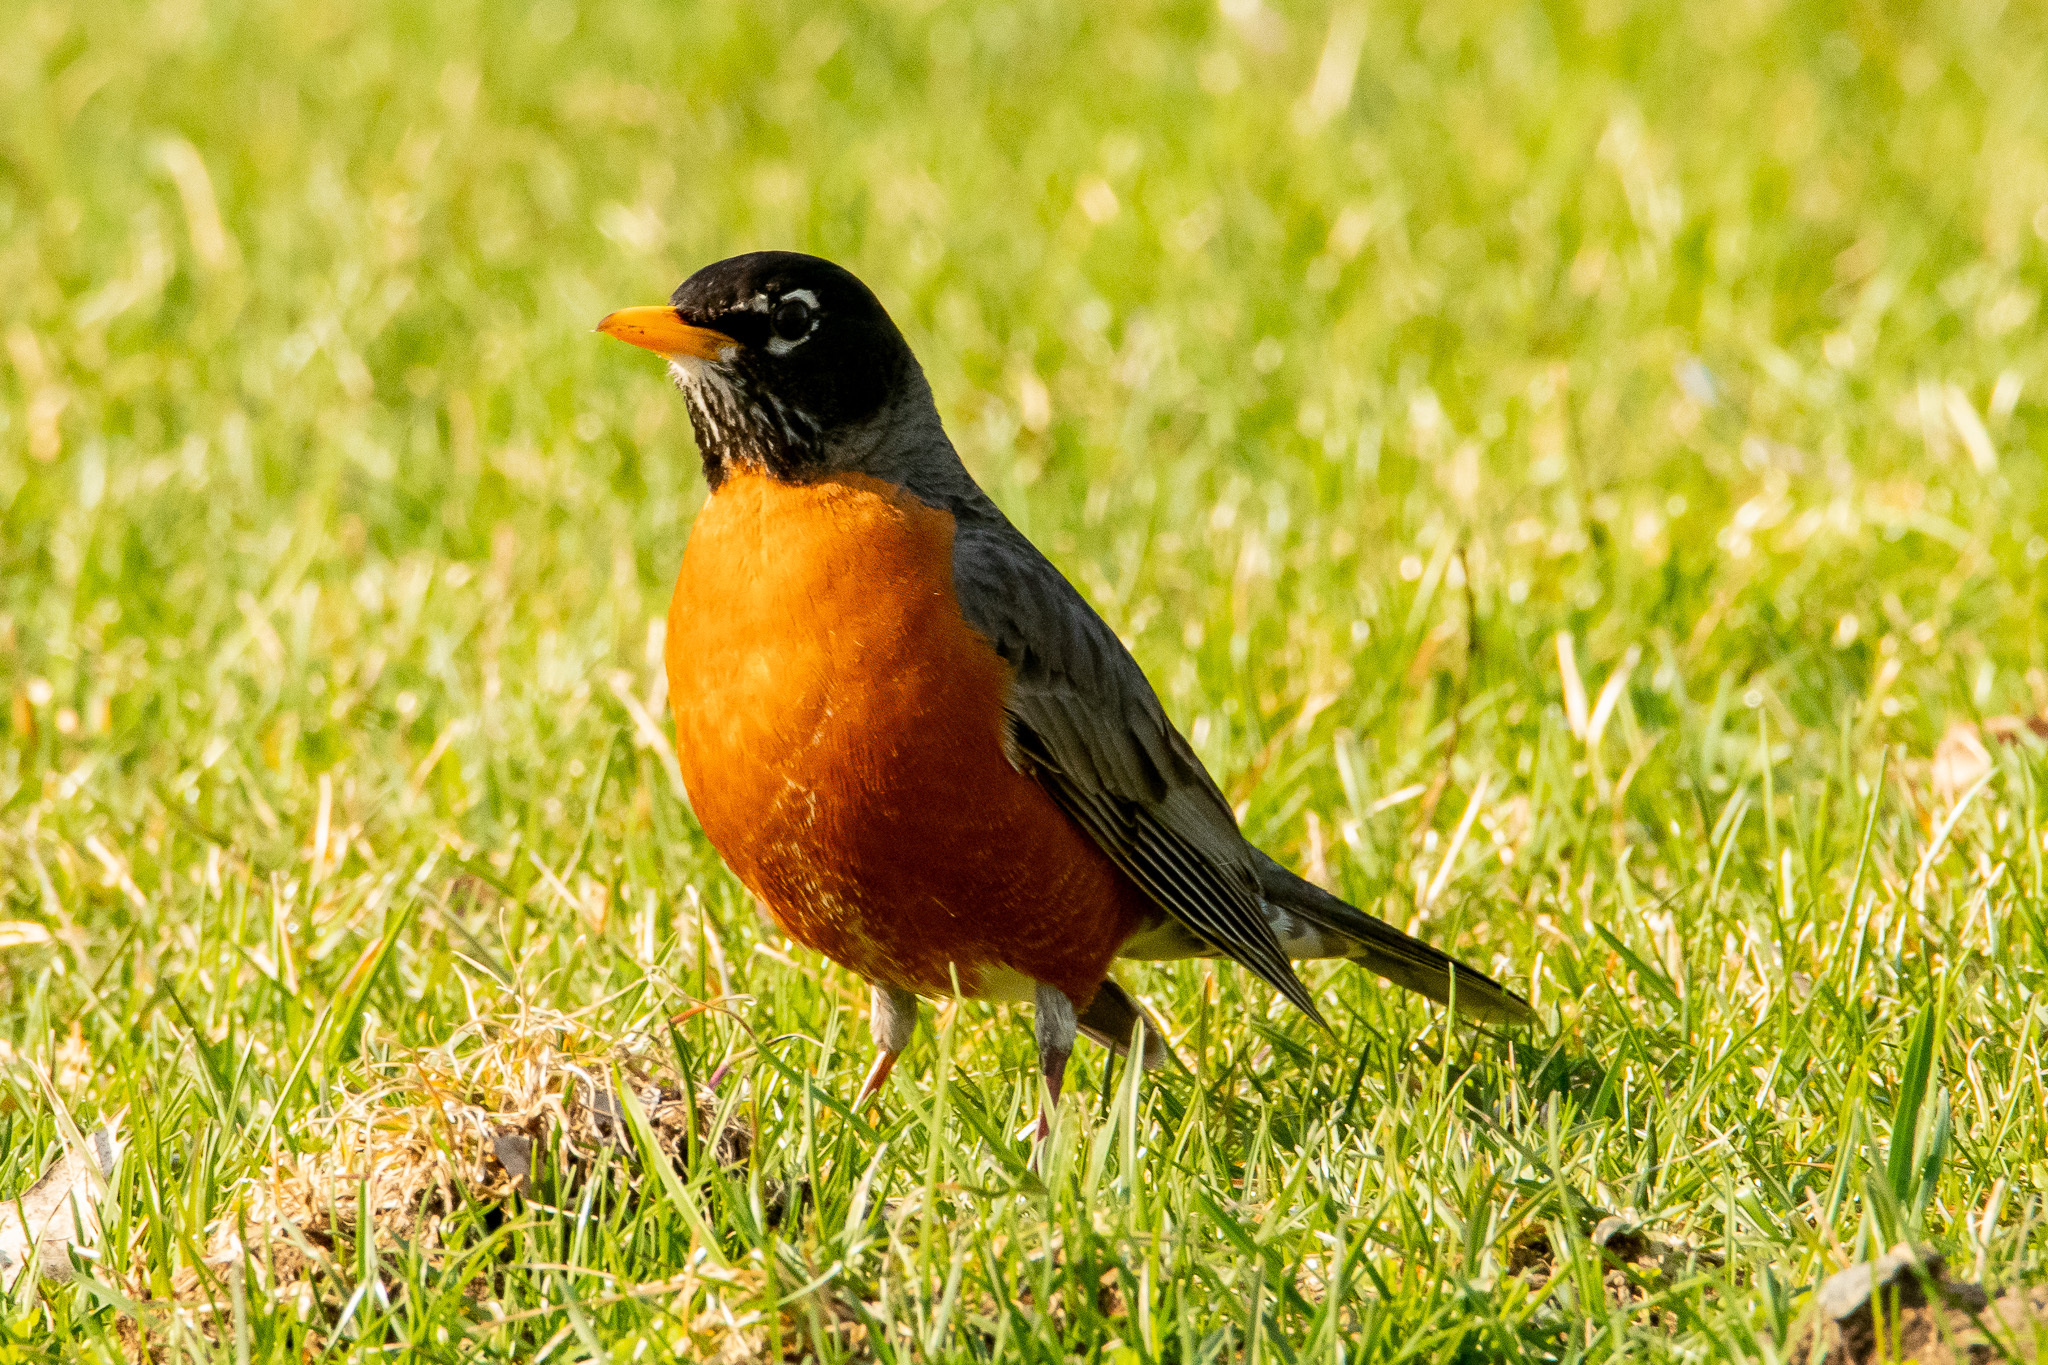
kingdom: Animalia
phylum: Chordata
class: Aves
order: Passeriformes
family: Turdidae
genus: Turdus
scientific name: Turdus migratorius
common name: American robin
